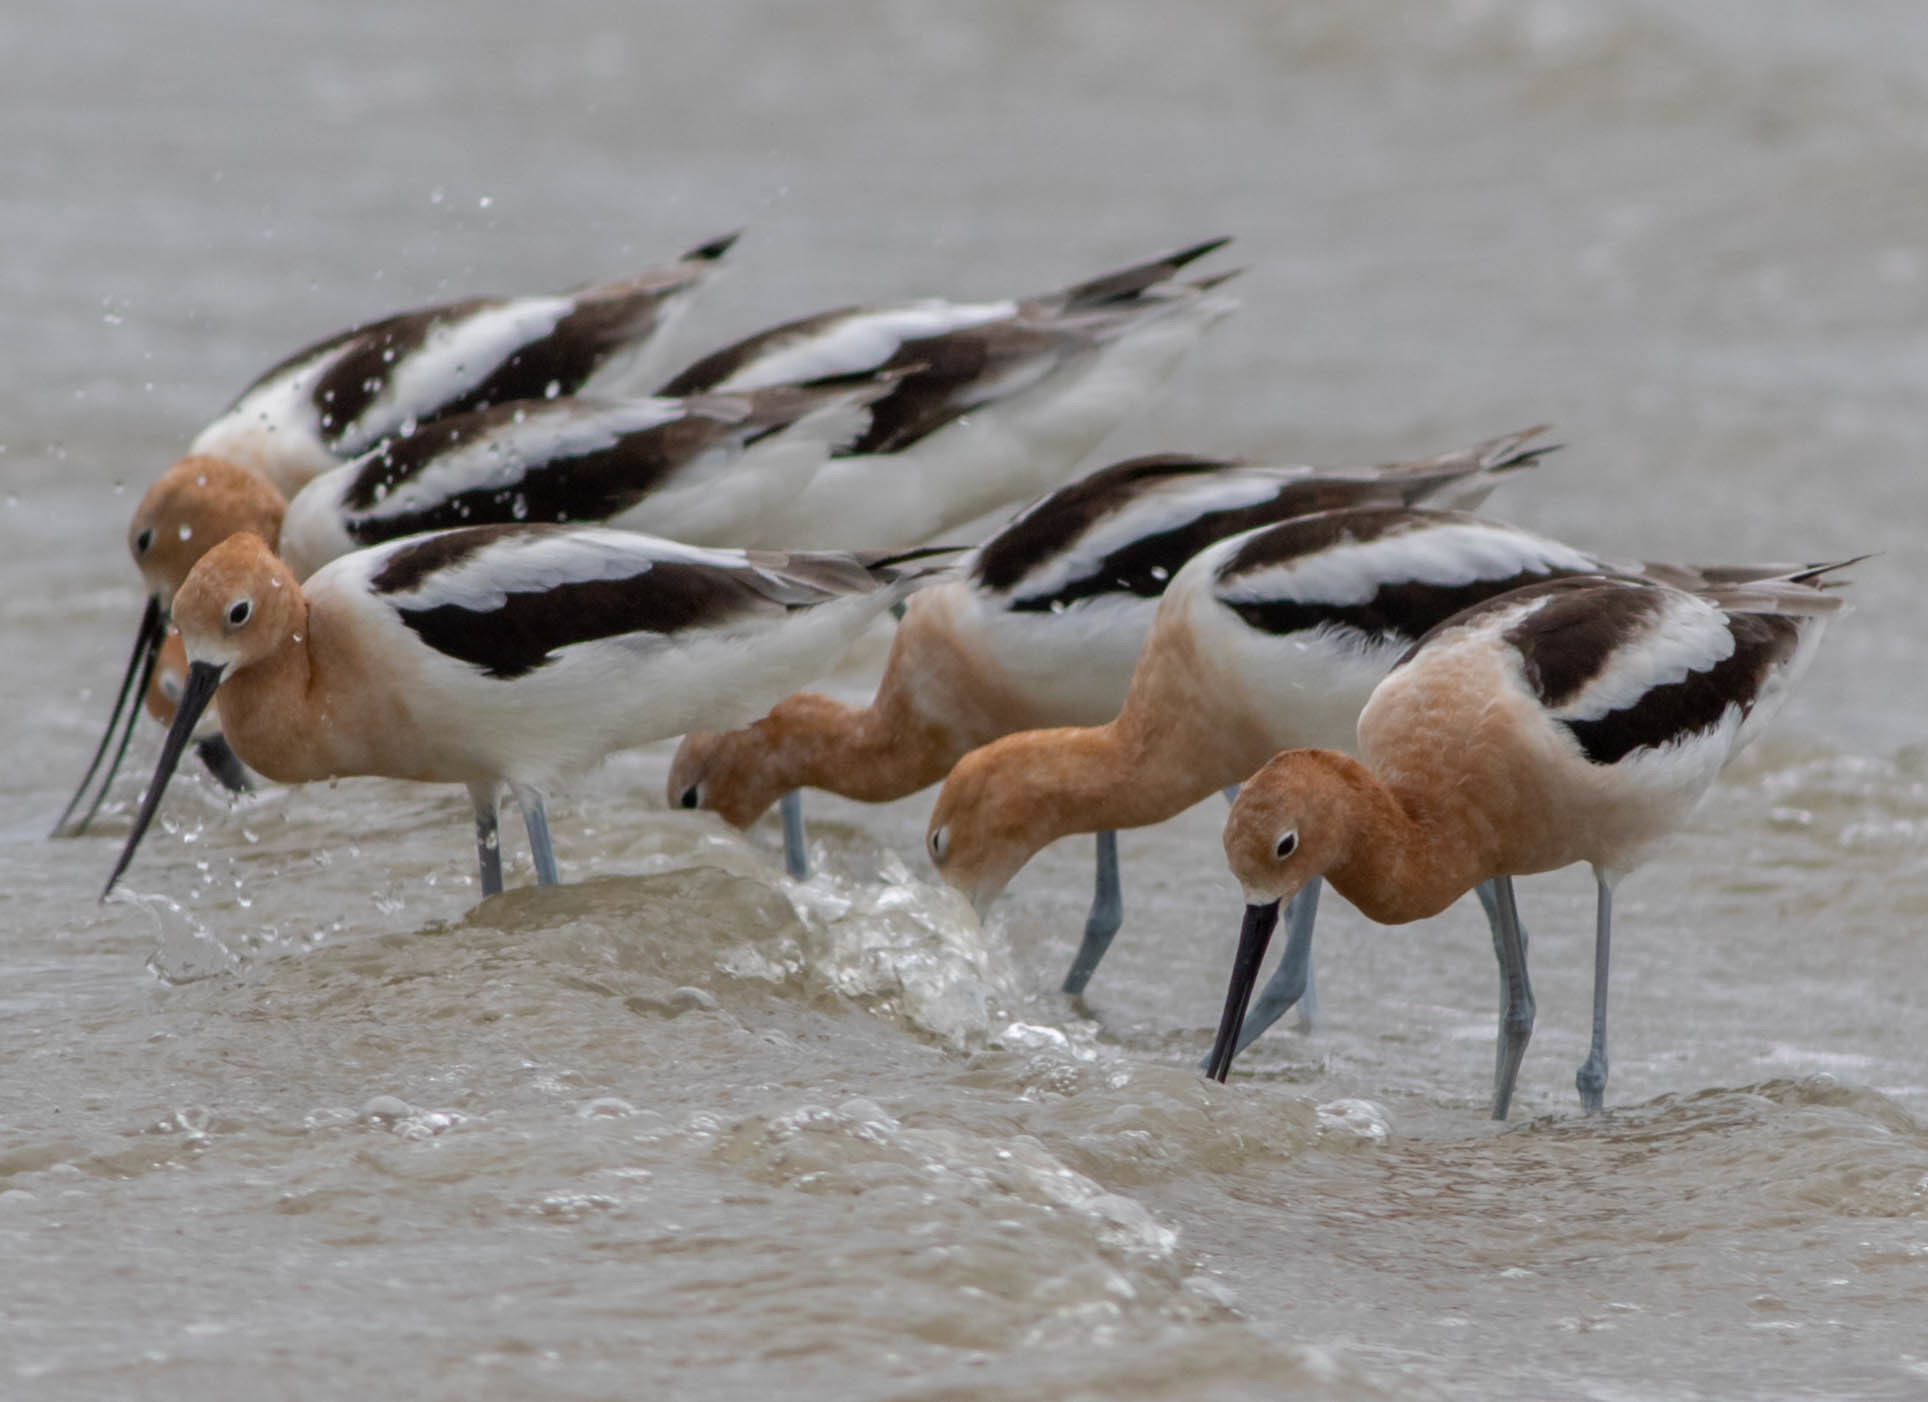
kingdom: Animalia
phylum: Chordata
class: Aves
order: Charadriiformes
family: Recurvirostridae
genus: Recurvirostra
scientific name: Recurvirostra americana
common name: American avocet
